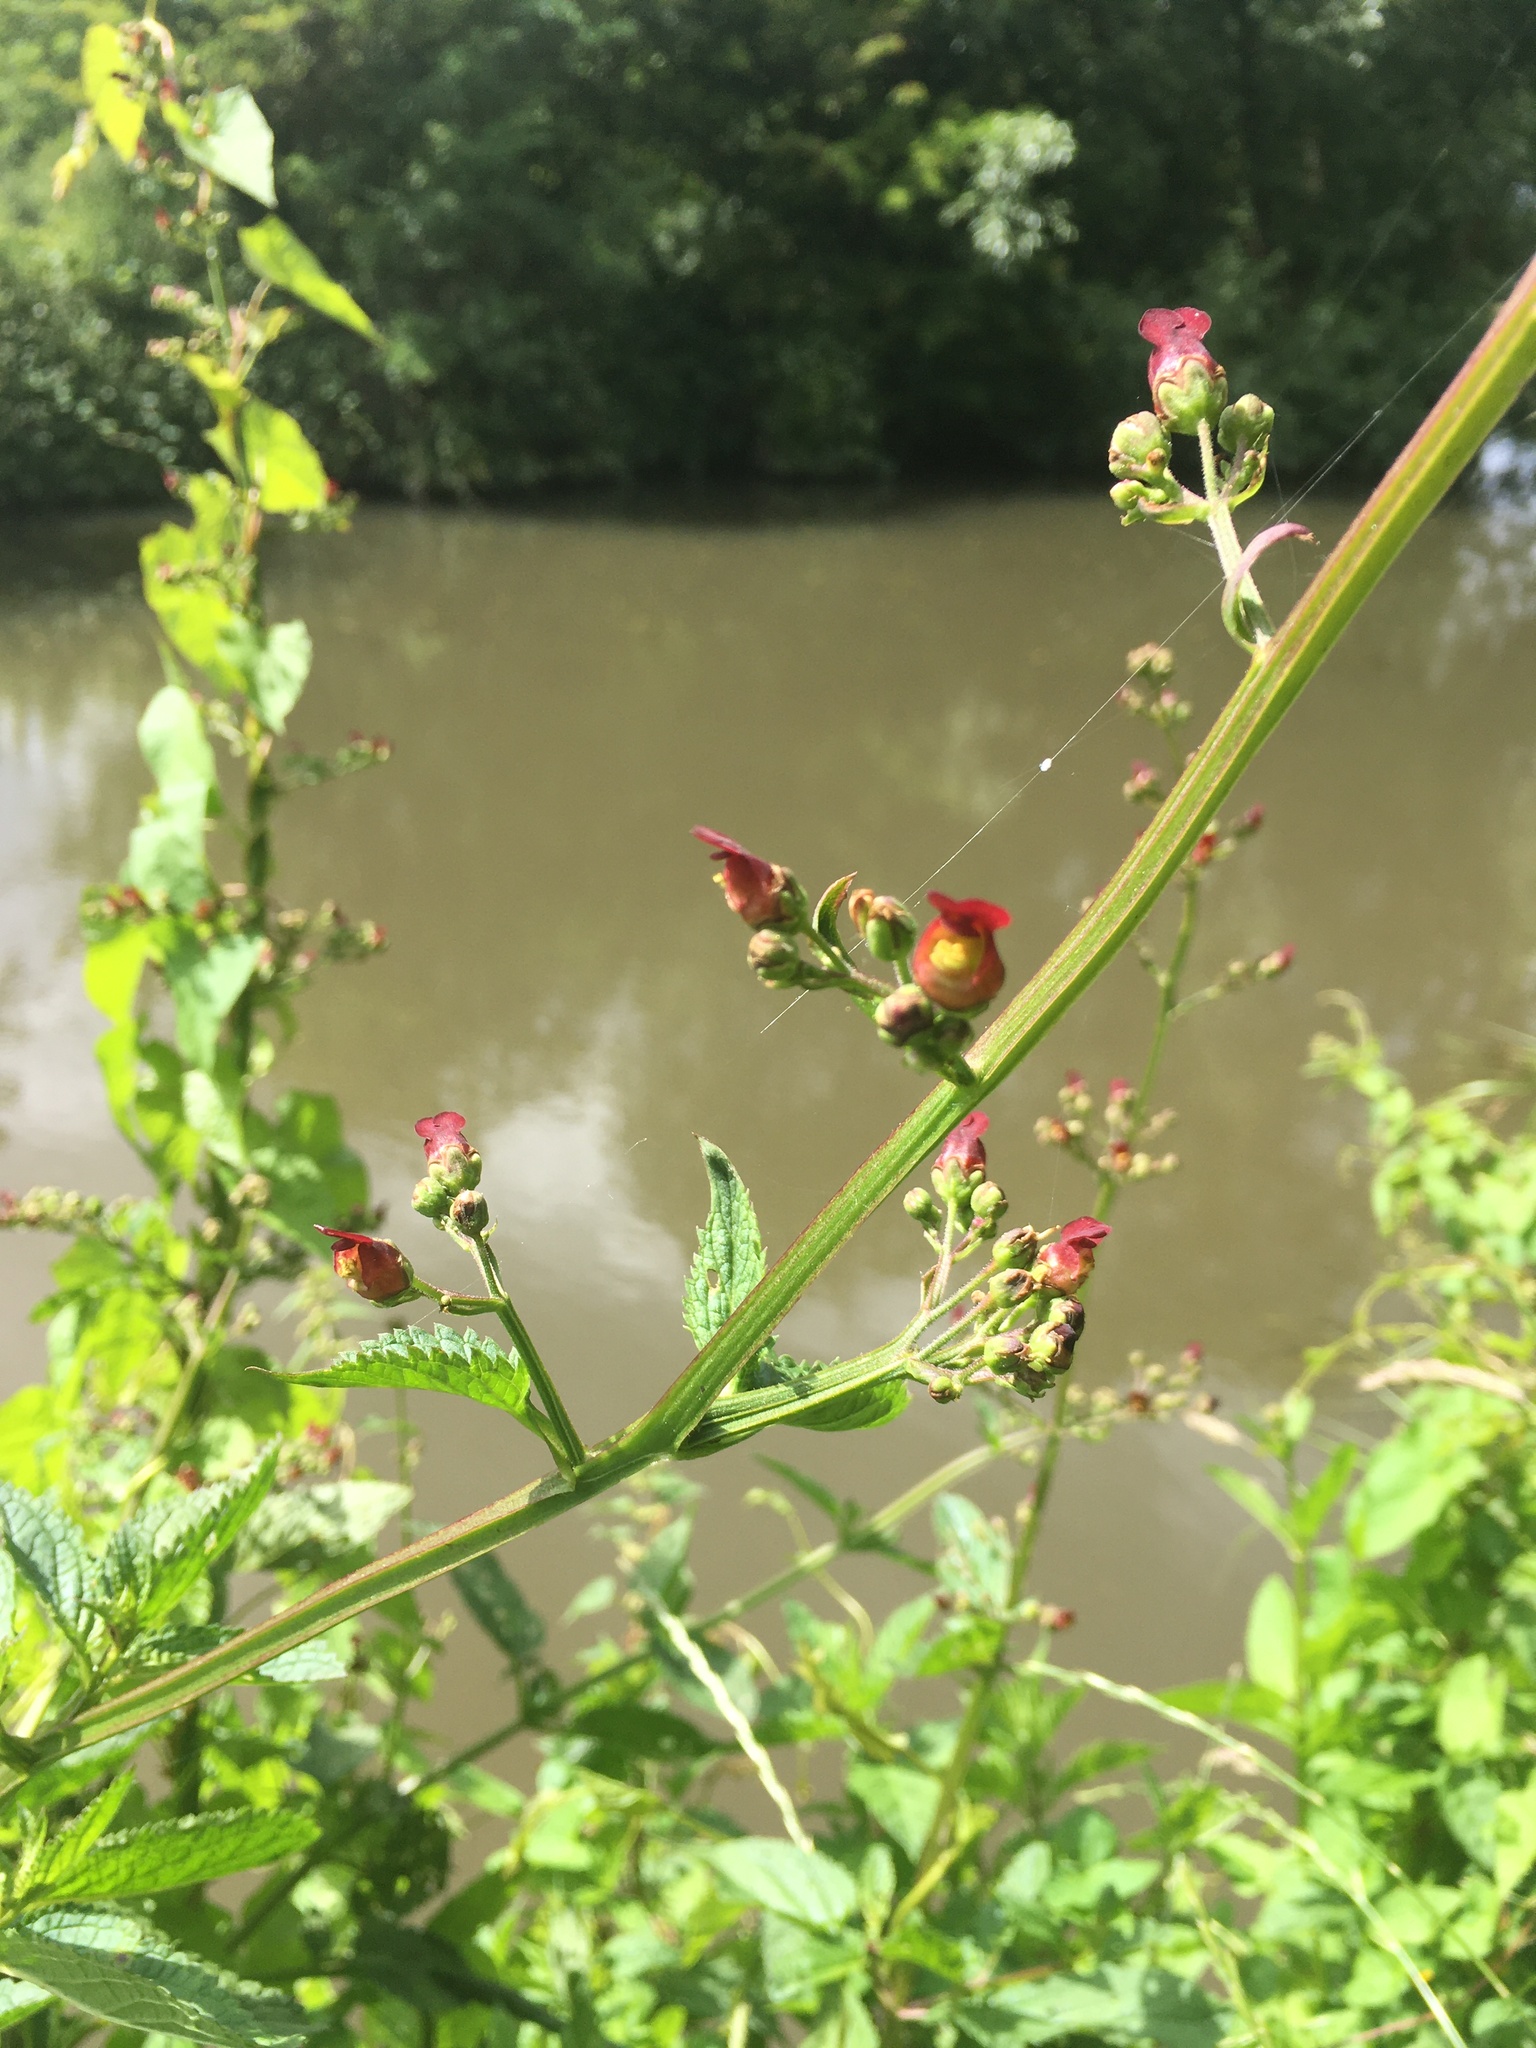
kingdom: Plantae
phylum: Tracheophyta
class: Magnoliopsida
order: Lamiales
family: Scrophulariaceae
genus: Scrophularia
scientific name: Scrophularia nodosa
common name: Common figwort
